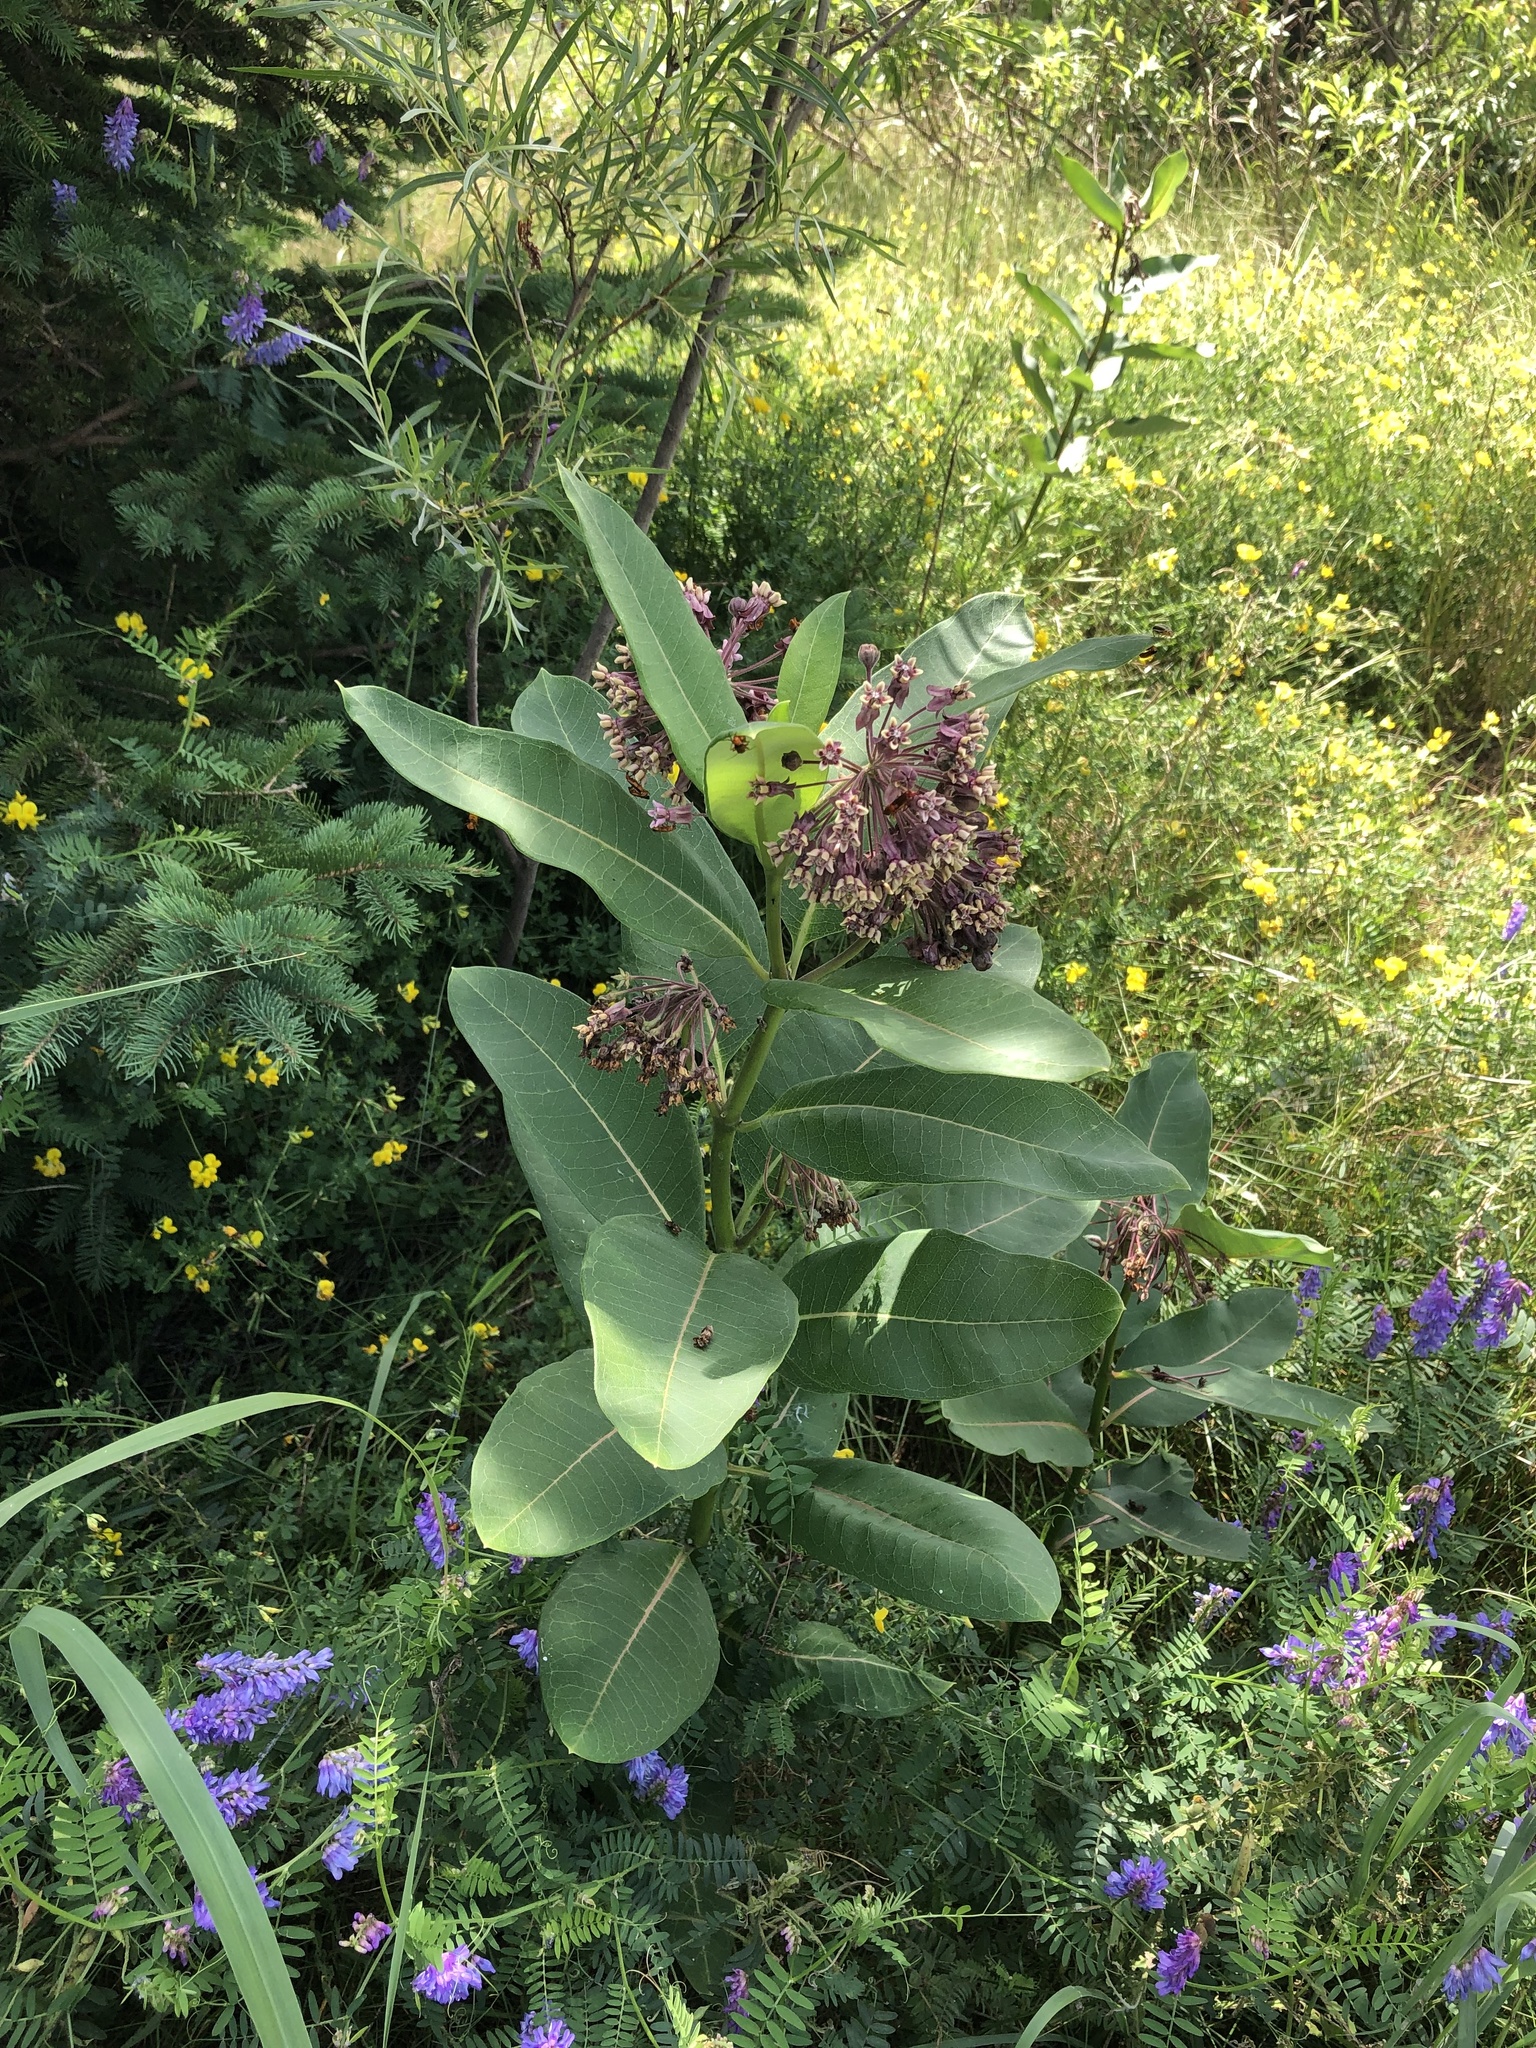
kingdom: Plantae
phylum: Tracheophyta
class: Magnoliopsida
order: Gentianales
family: Apocynaceae
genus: Asclepias
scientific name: Asclepias syriaca
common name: Common milkweed
